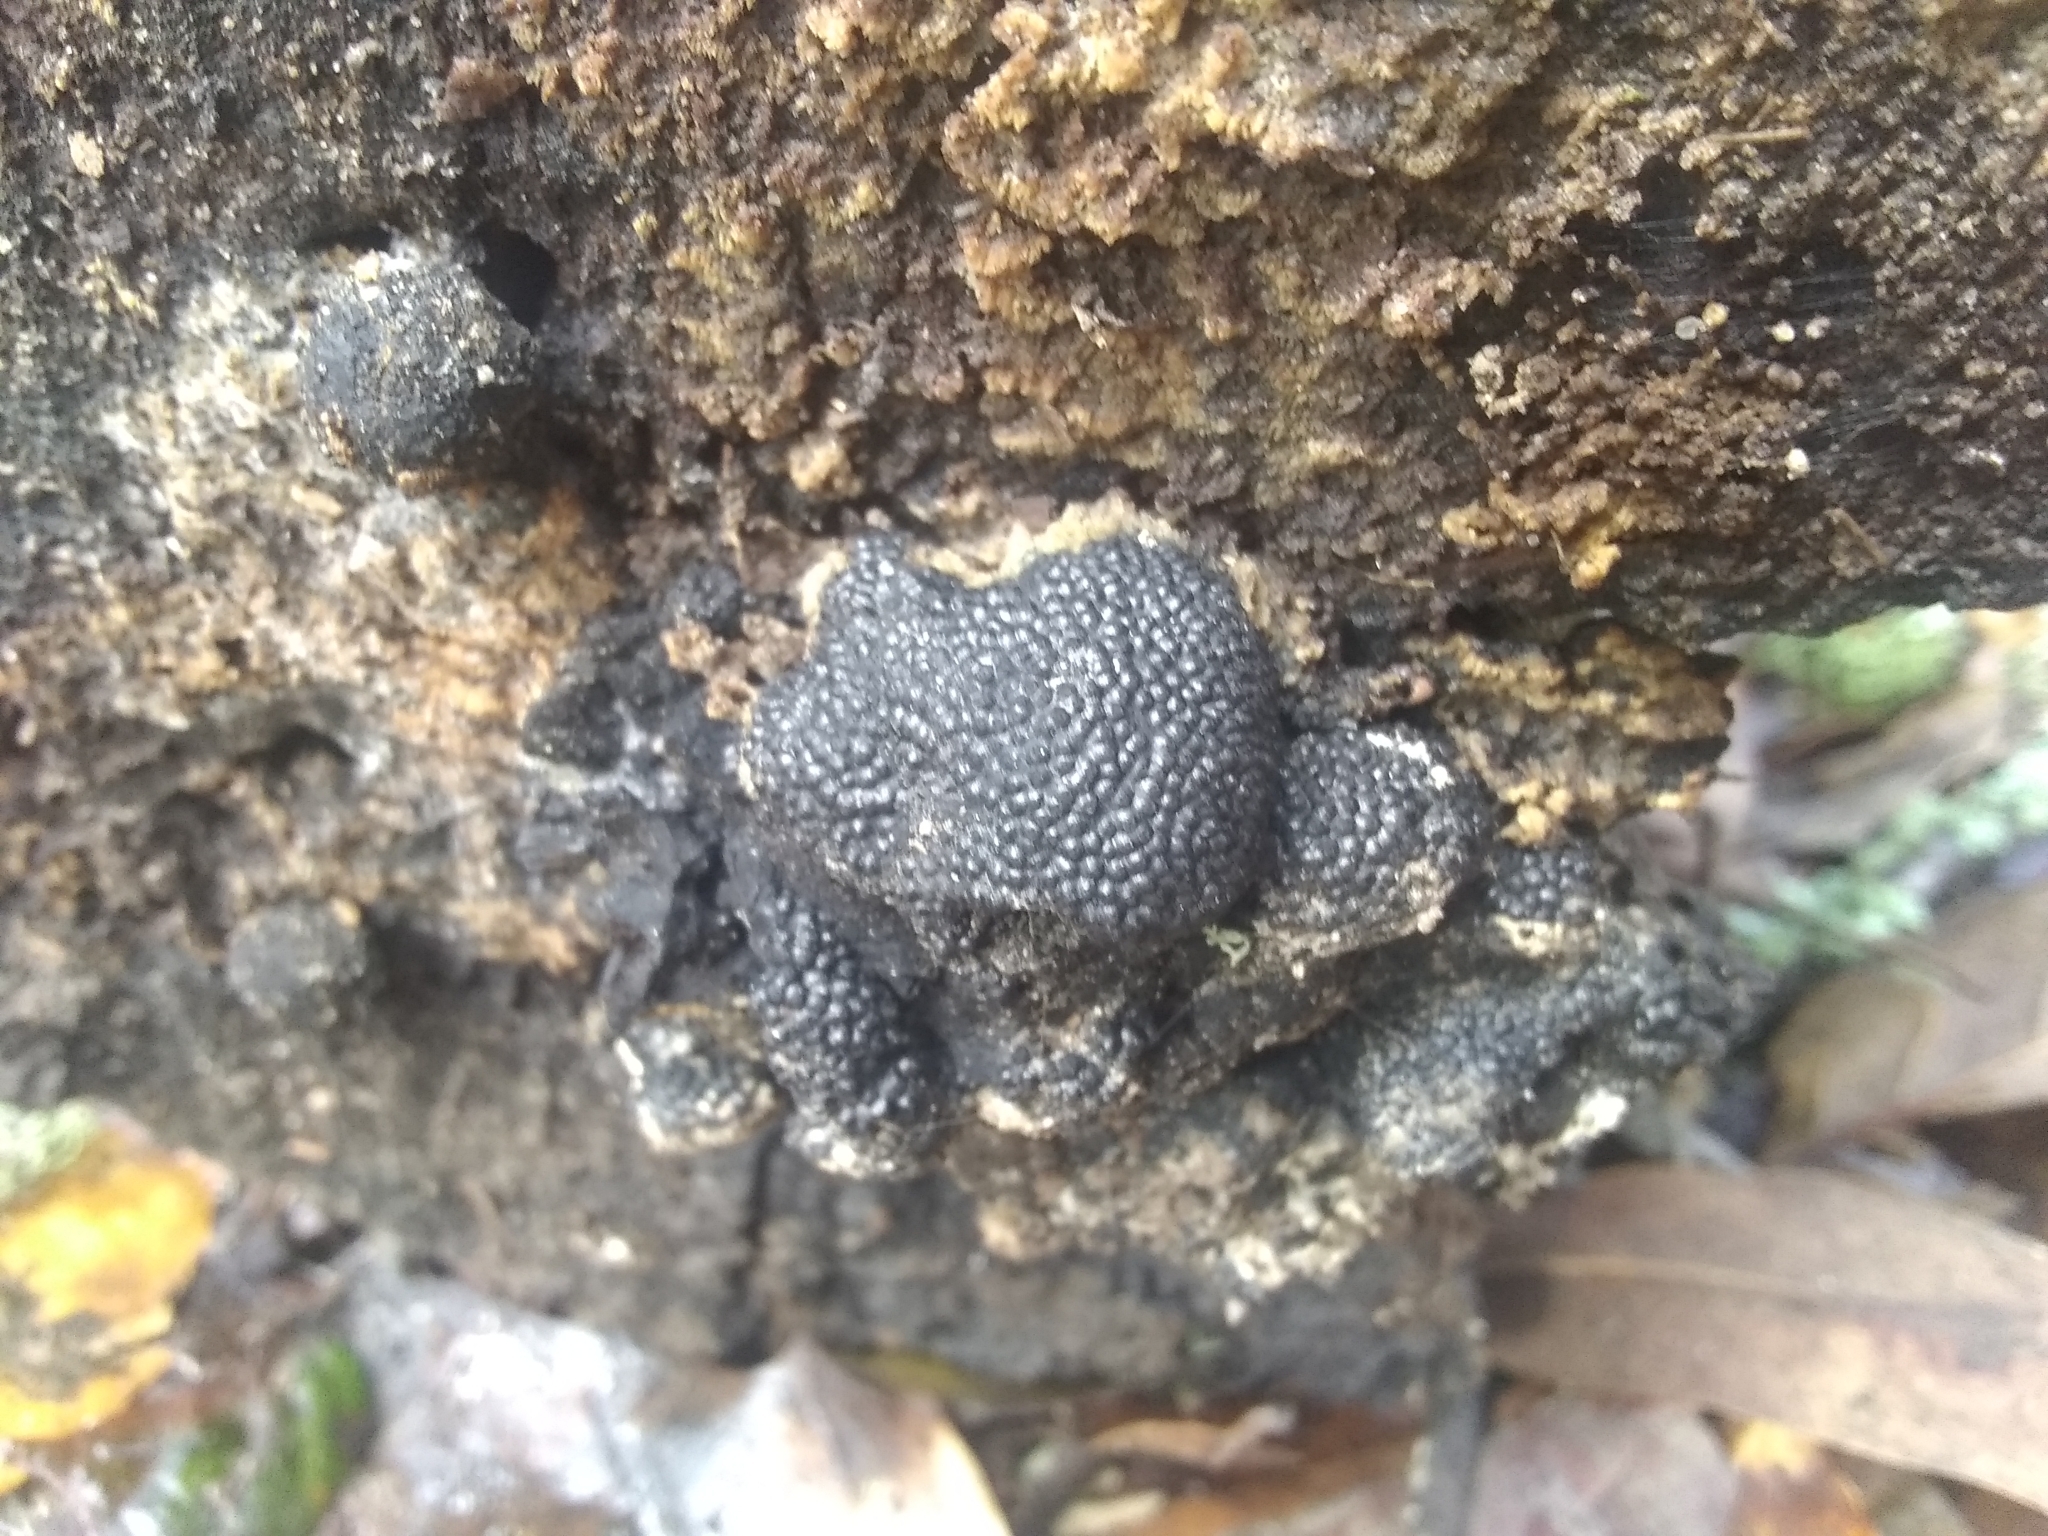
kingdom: Fungi
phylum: Ascomycota
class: Sordariomycetes
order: Xylariales
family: Hypoxylaceae
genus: Annulohypoxylon
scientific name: Annulohypoxylon thouarsianum
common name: Cramp balls
